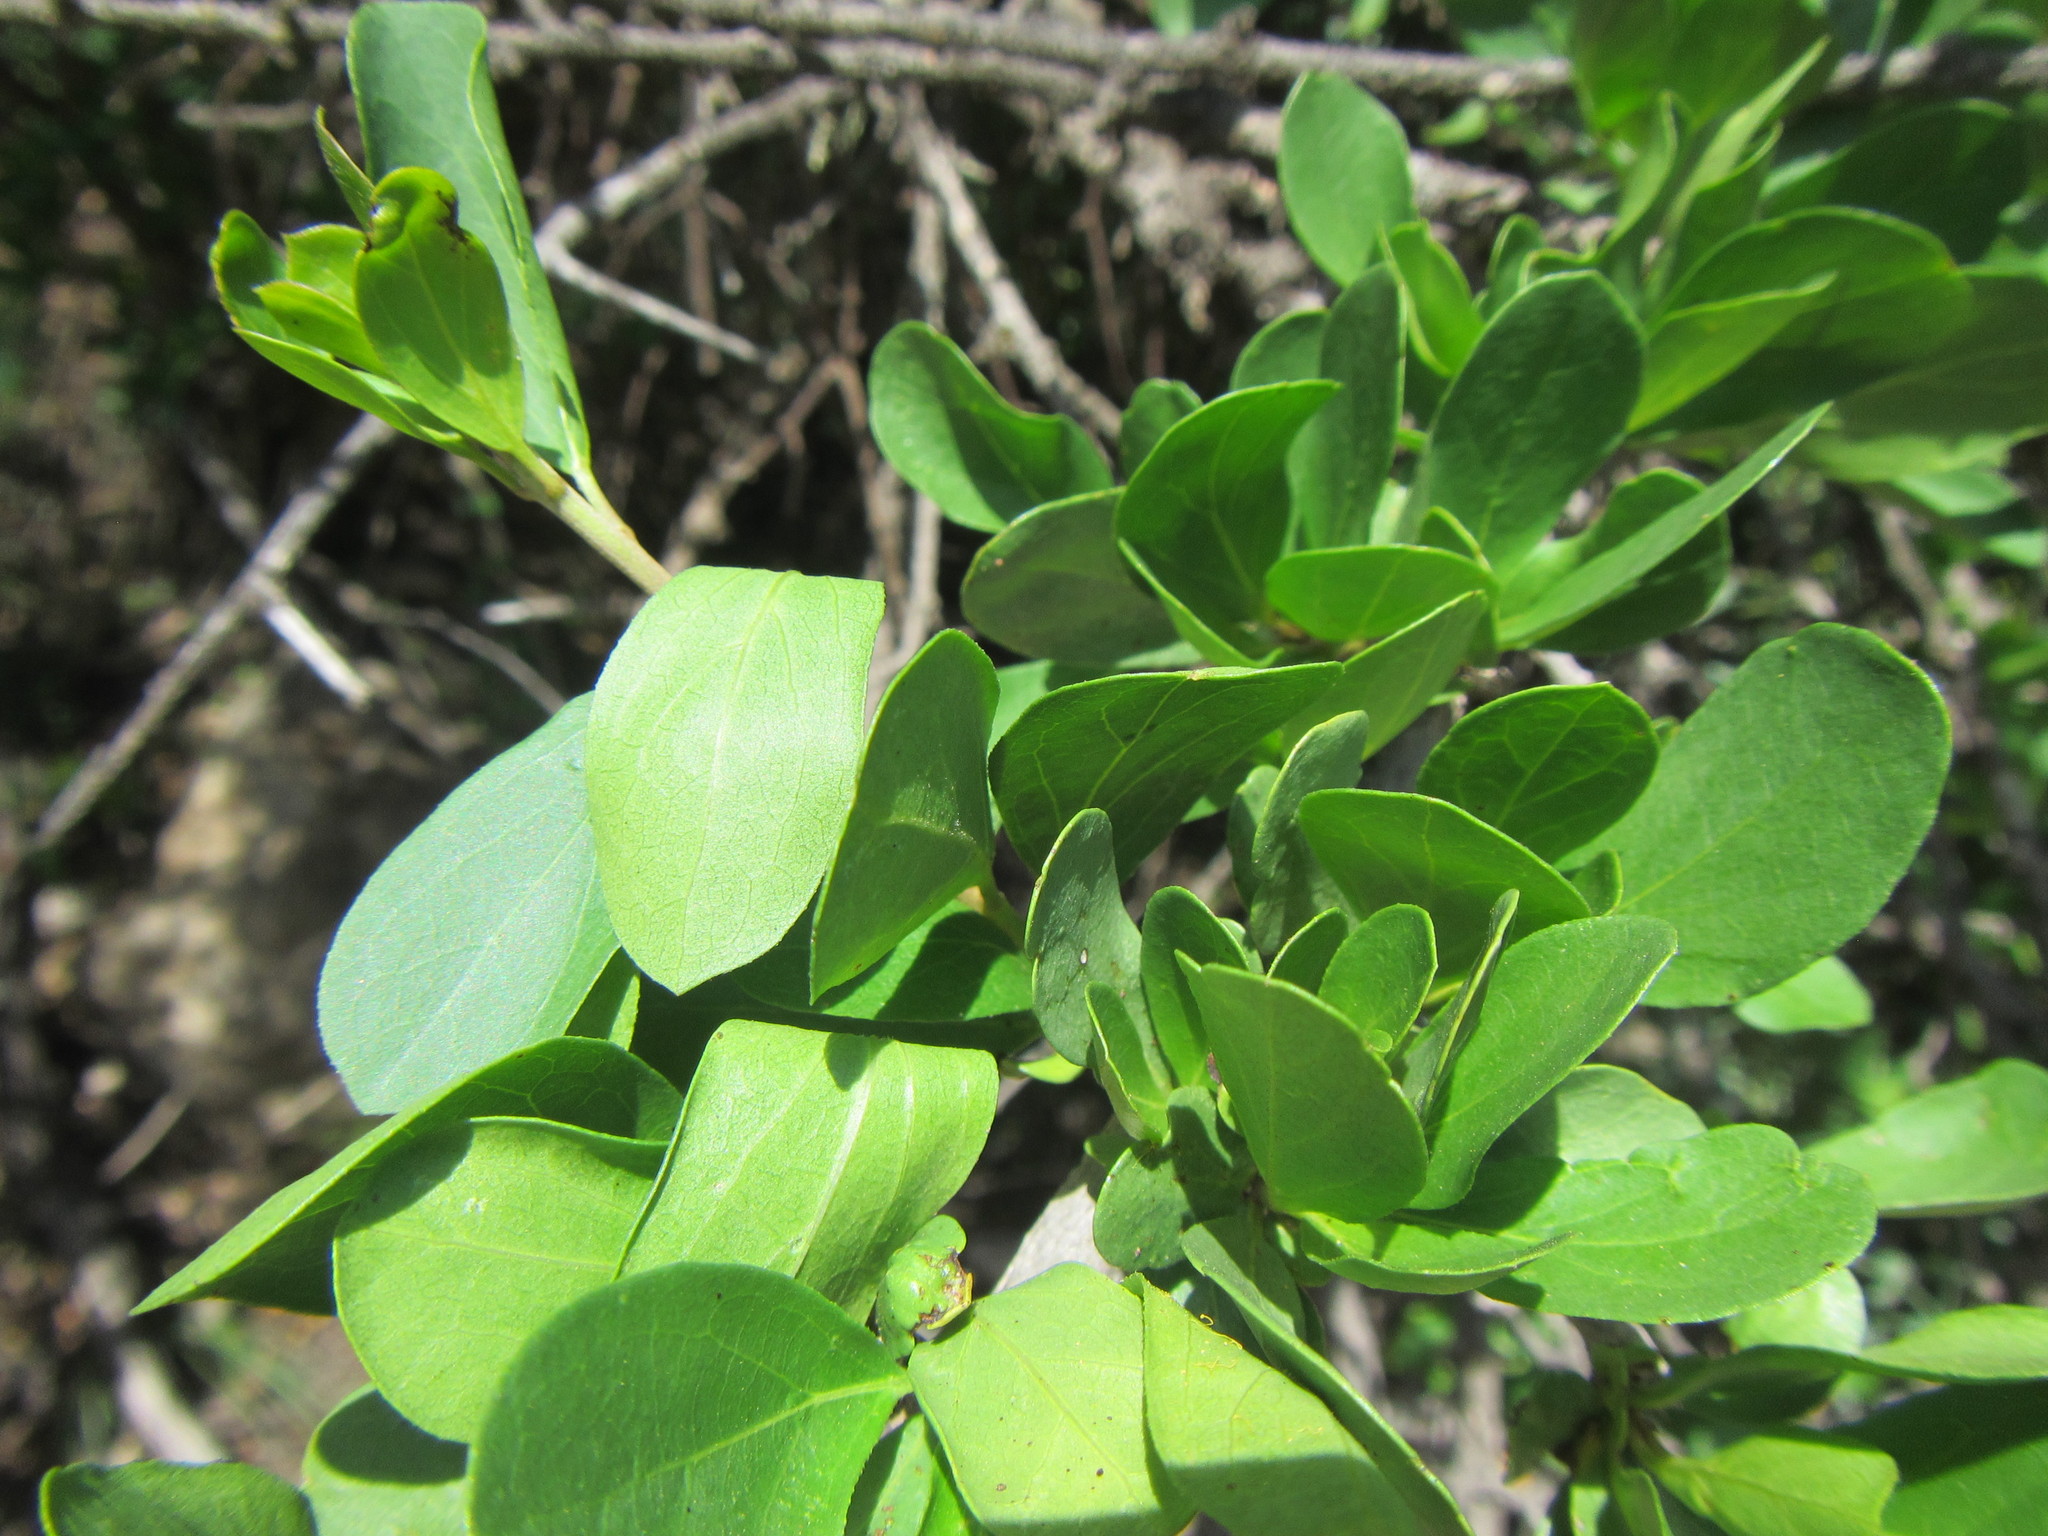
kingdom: Plantae
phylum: Tracheophyta
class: Magnoliopsida
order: Boraginales
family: Ehretiaceae
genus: Ehretia
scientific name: Ehretia rigida
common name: Cape lilac
